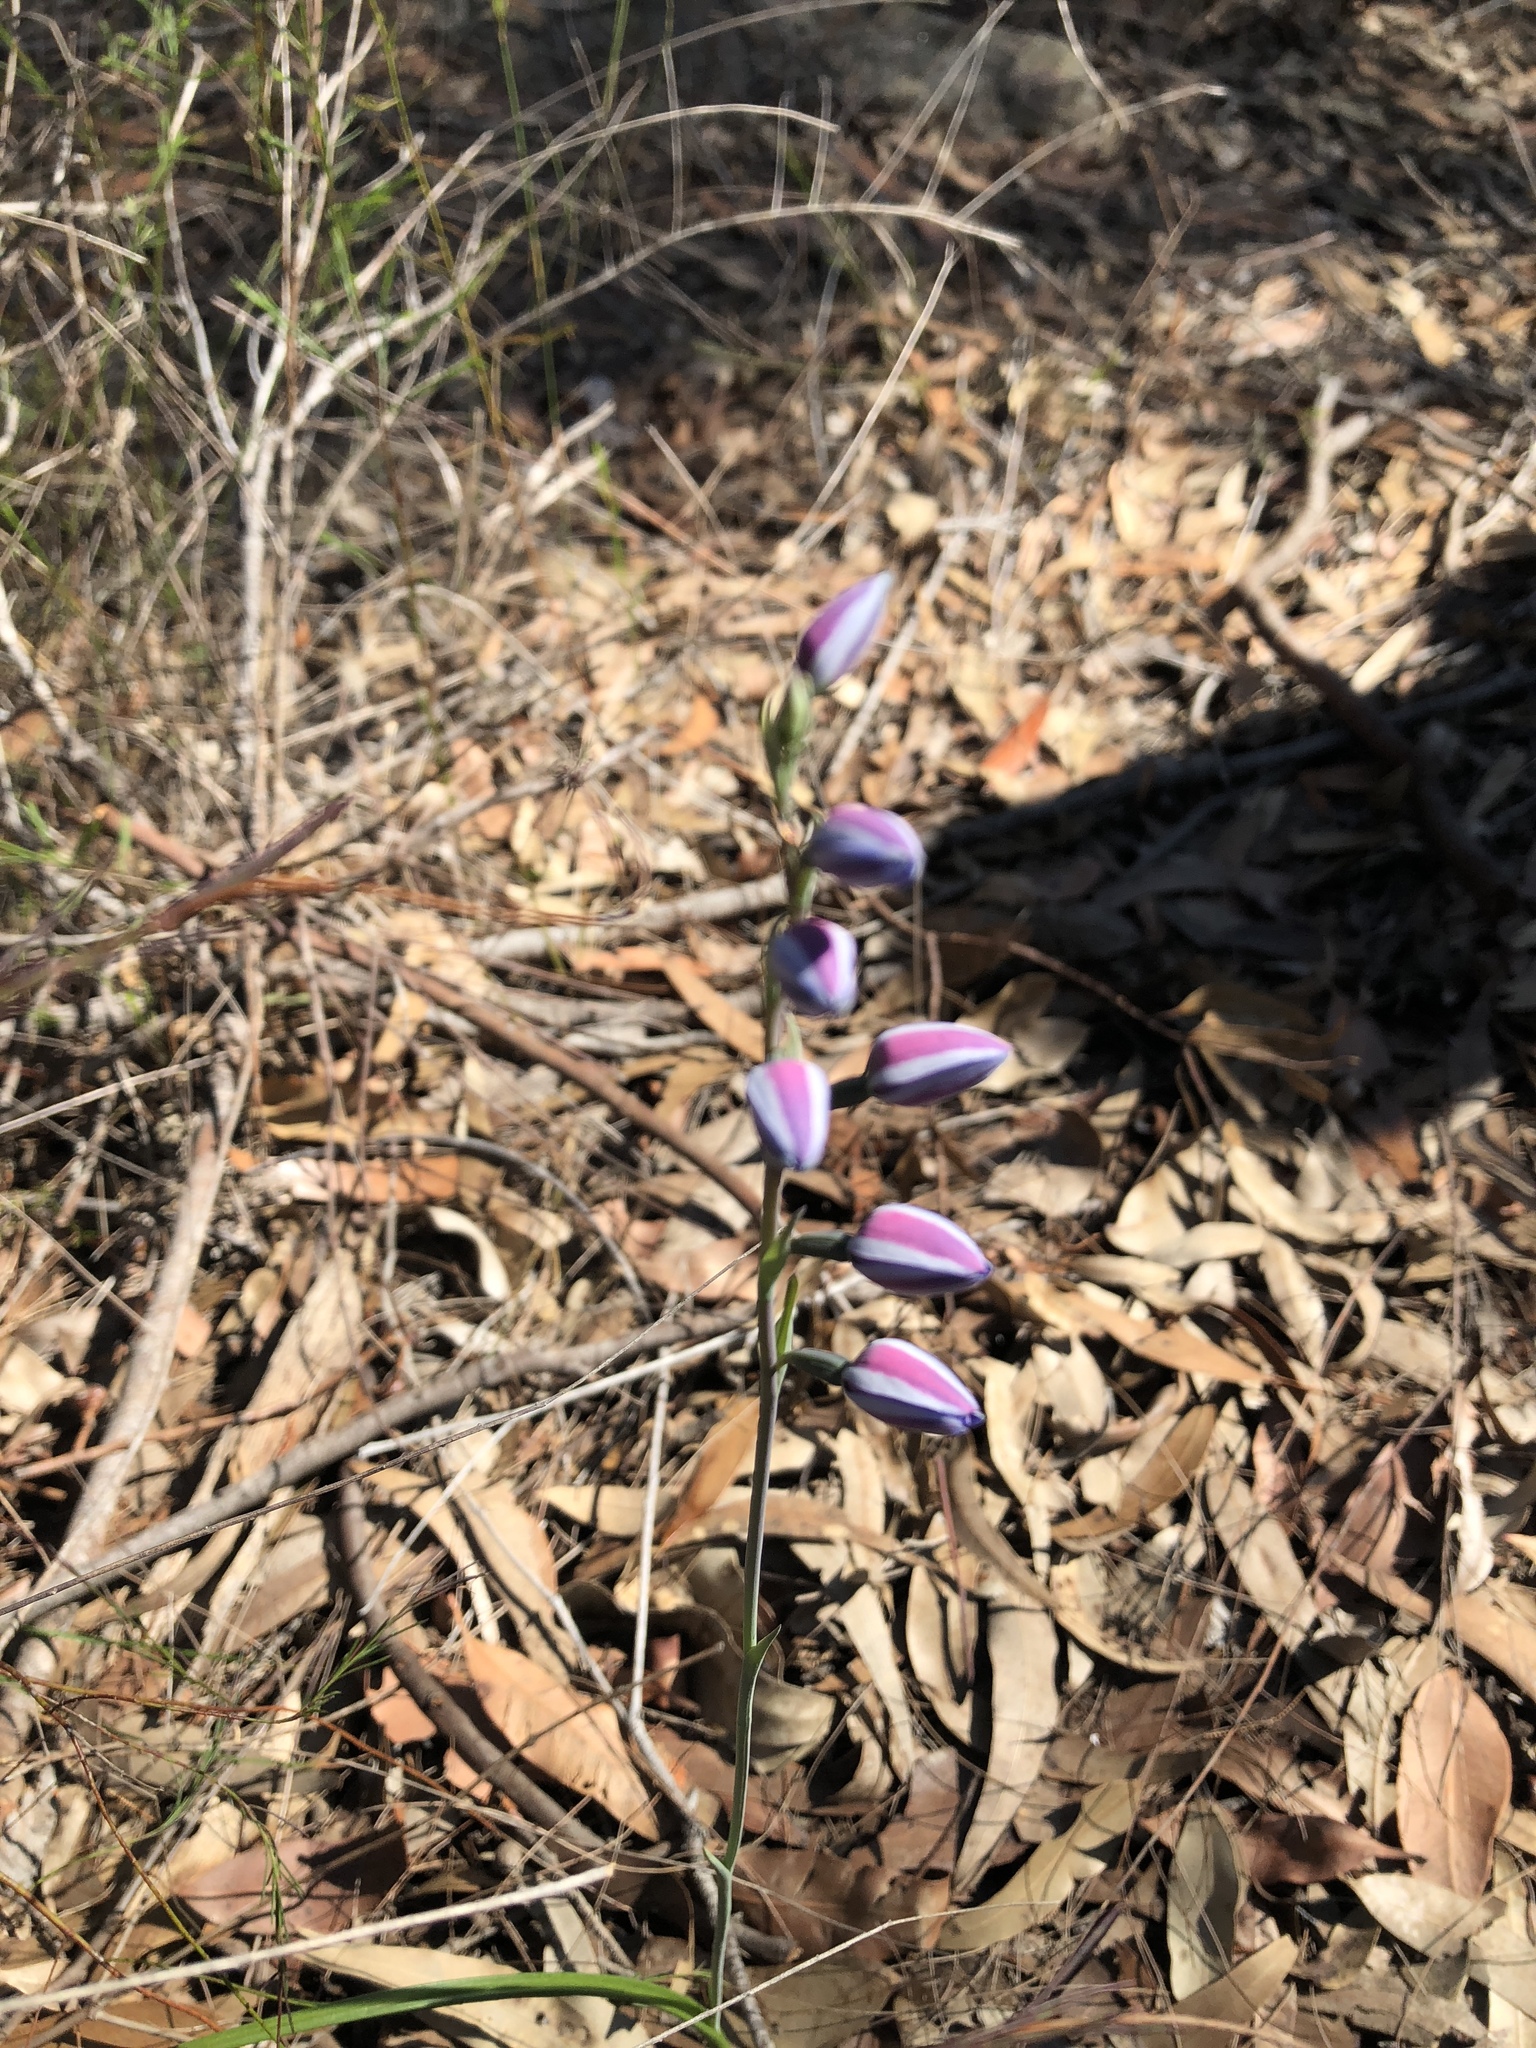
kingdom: Plantae
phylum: Tracheophyta
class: Liliopsida
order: Asparagales
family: Orchidaceae
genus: Thelymitra
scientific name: Thelymitra ixioides
